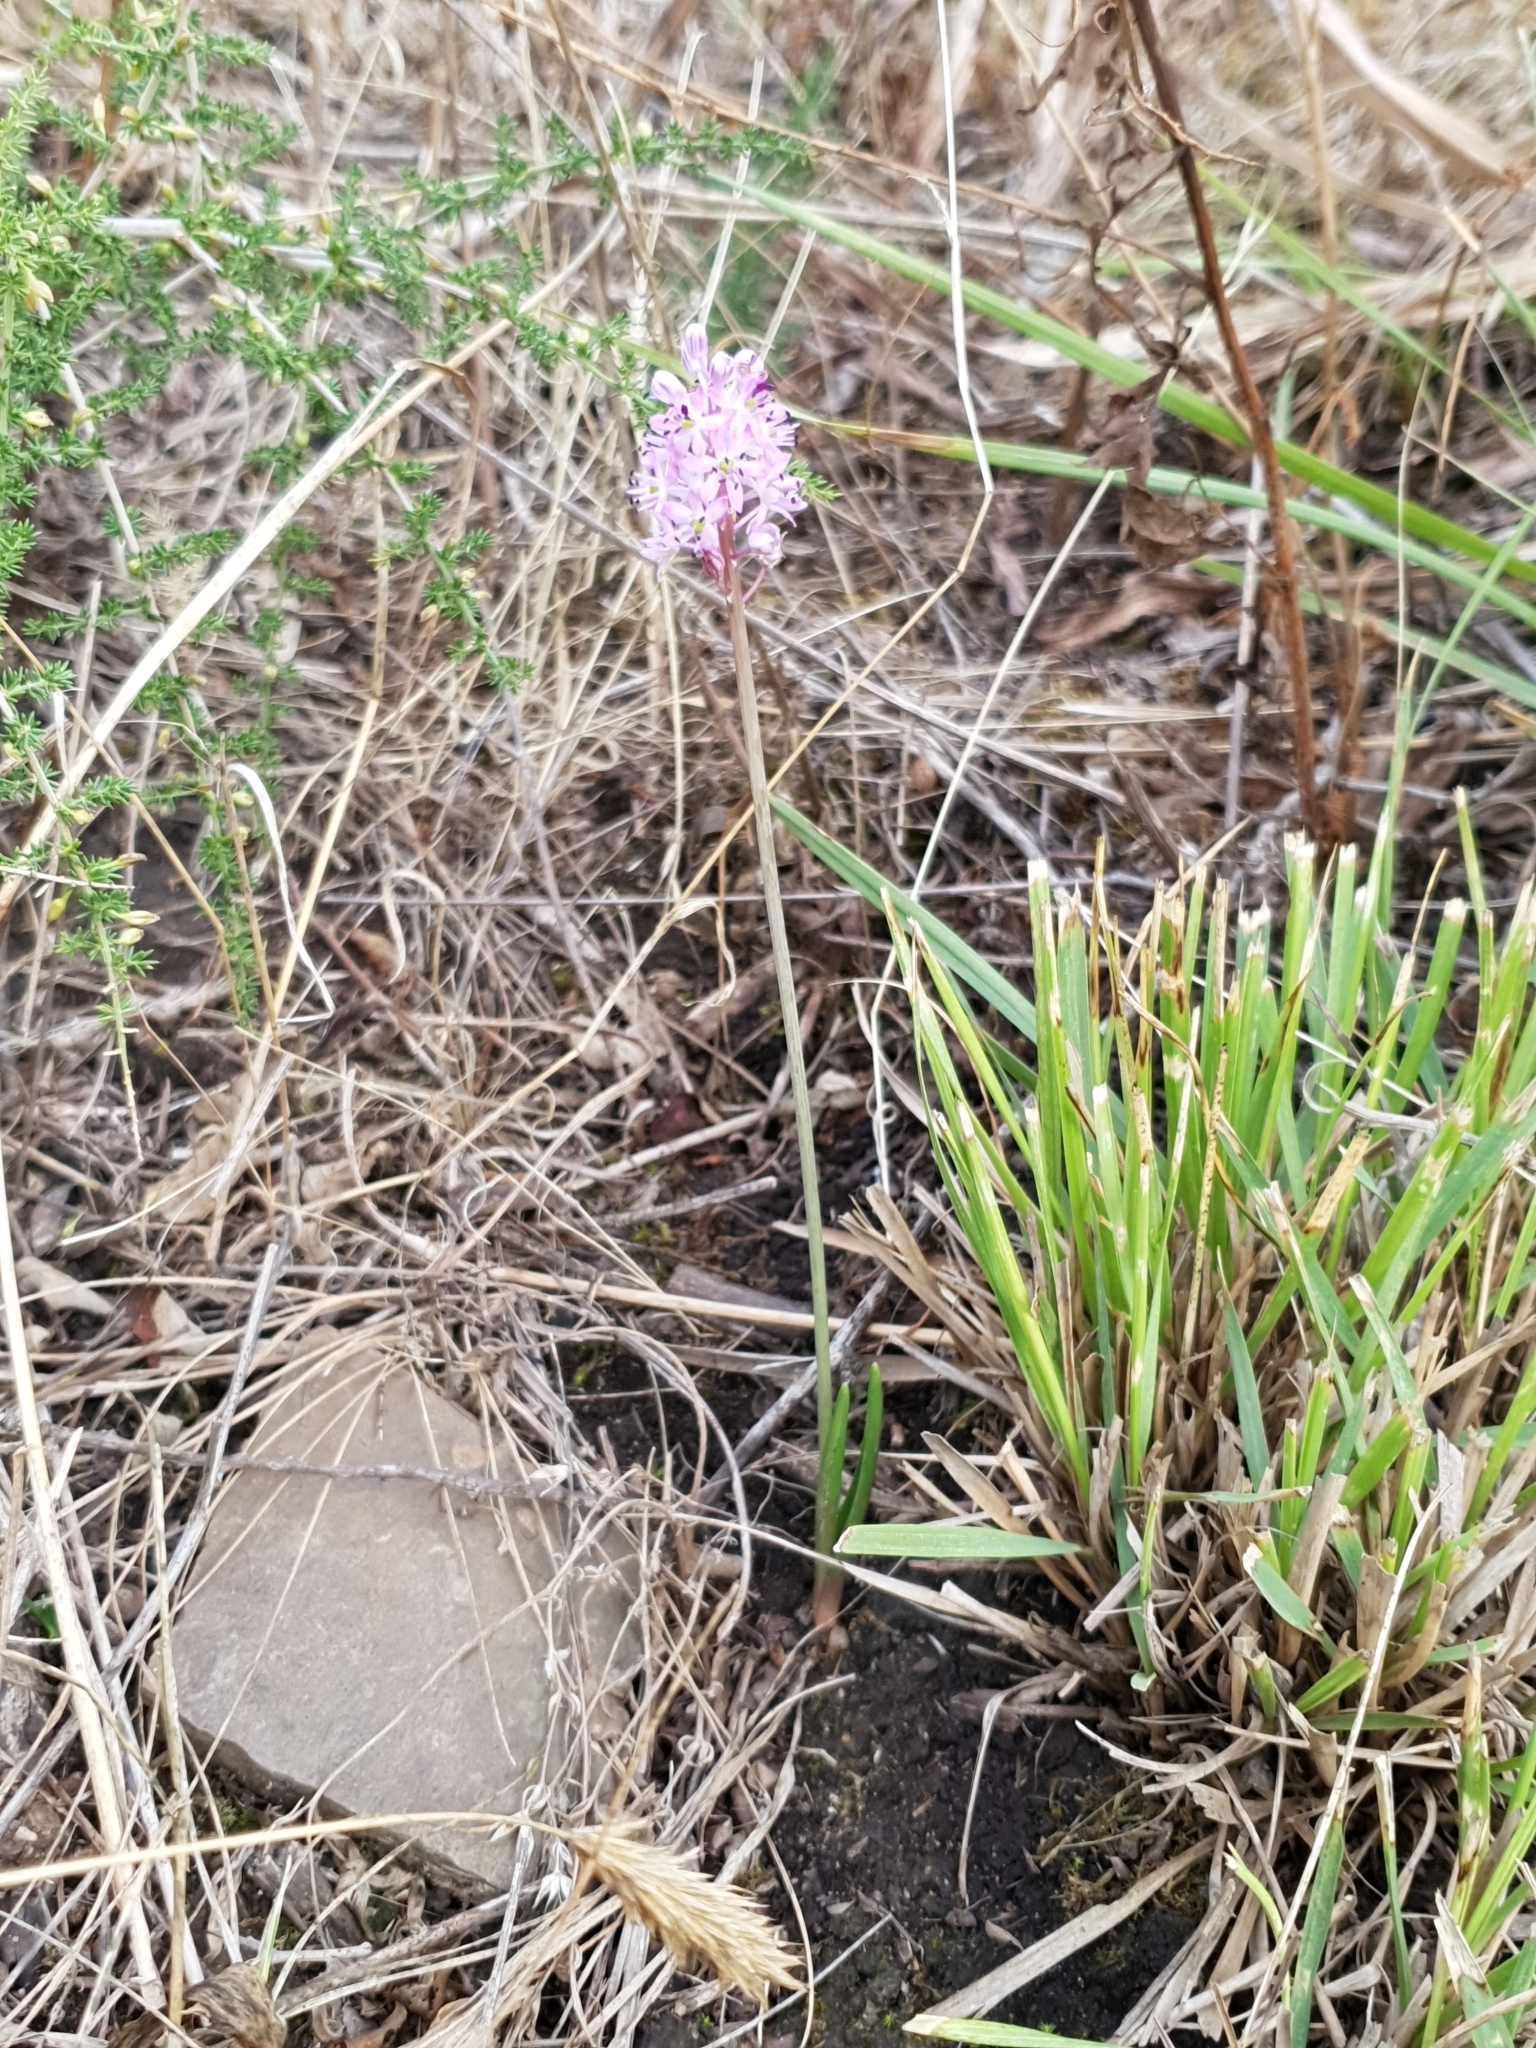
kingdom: Plantae
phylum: Tracheophyta
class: Liliopsida
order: Asparagales
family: Asparagaceae
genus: Barnardia
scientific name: Barnardia numidica
